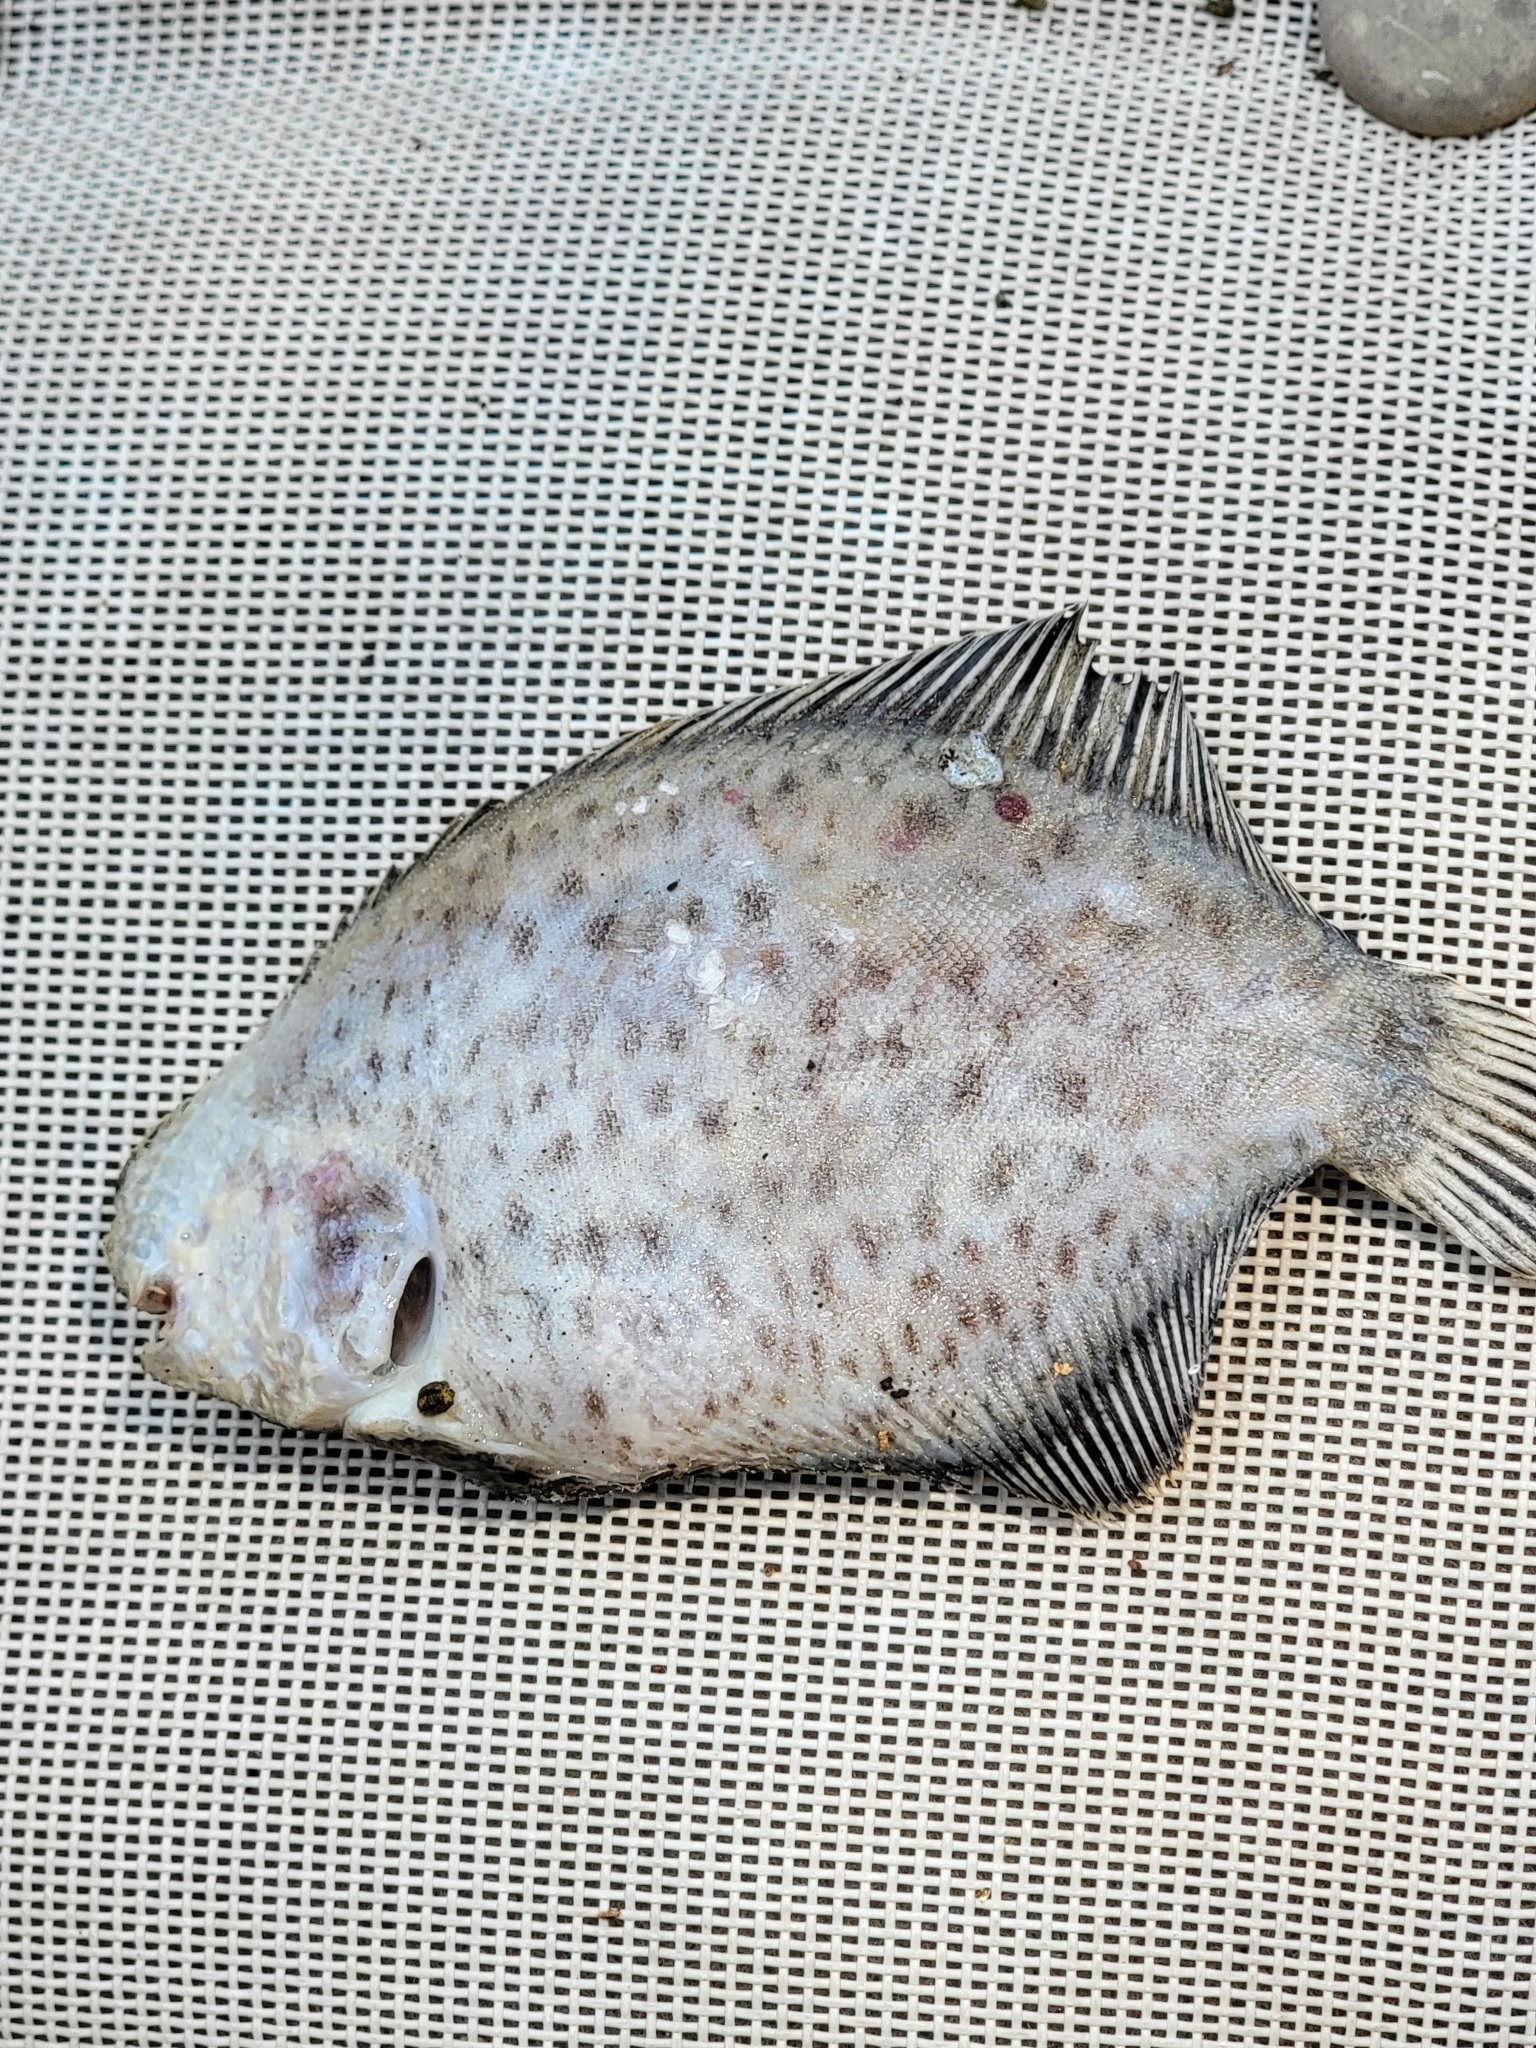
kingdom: Animalia
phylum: Chordata
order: Pleuronectiformes
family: Achiridae
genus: Trinectes
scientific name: Trinectes maculatus
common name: Hogchoker
